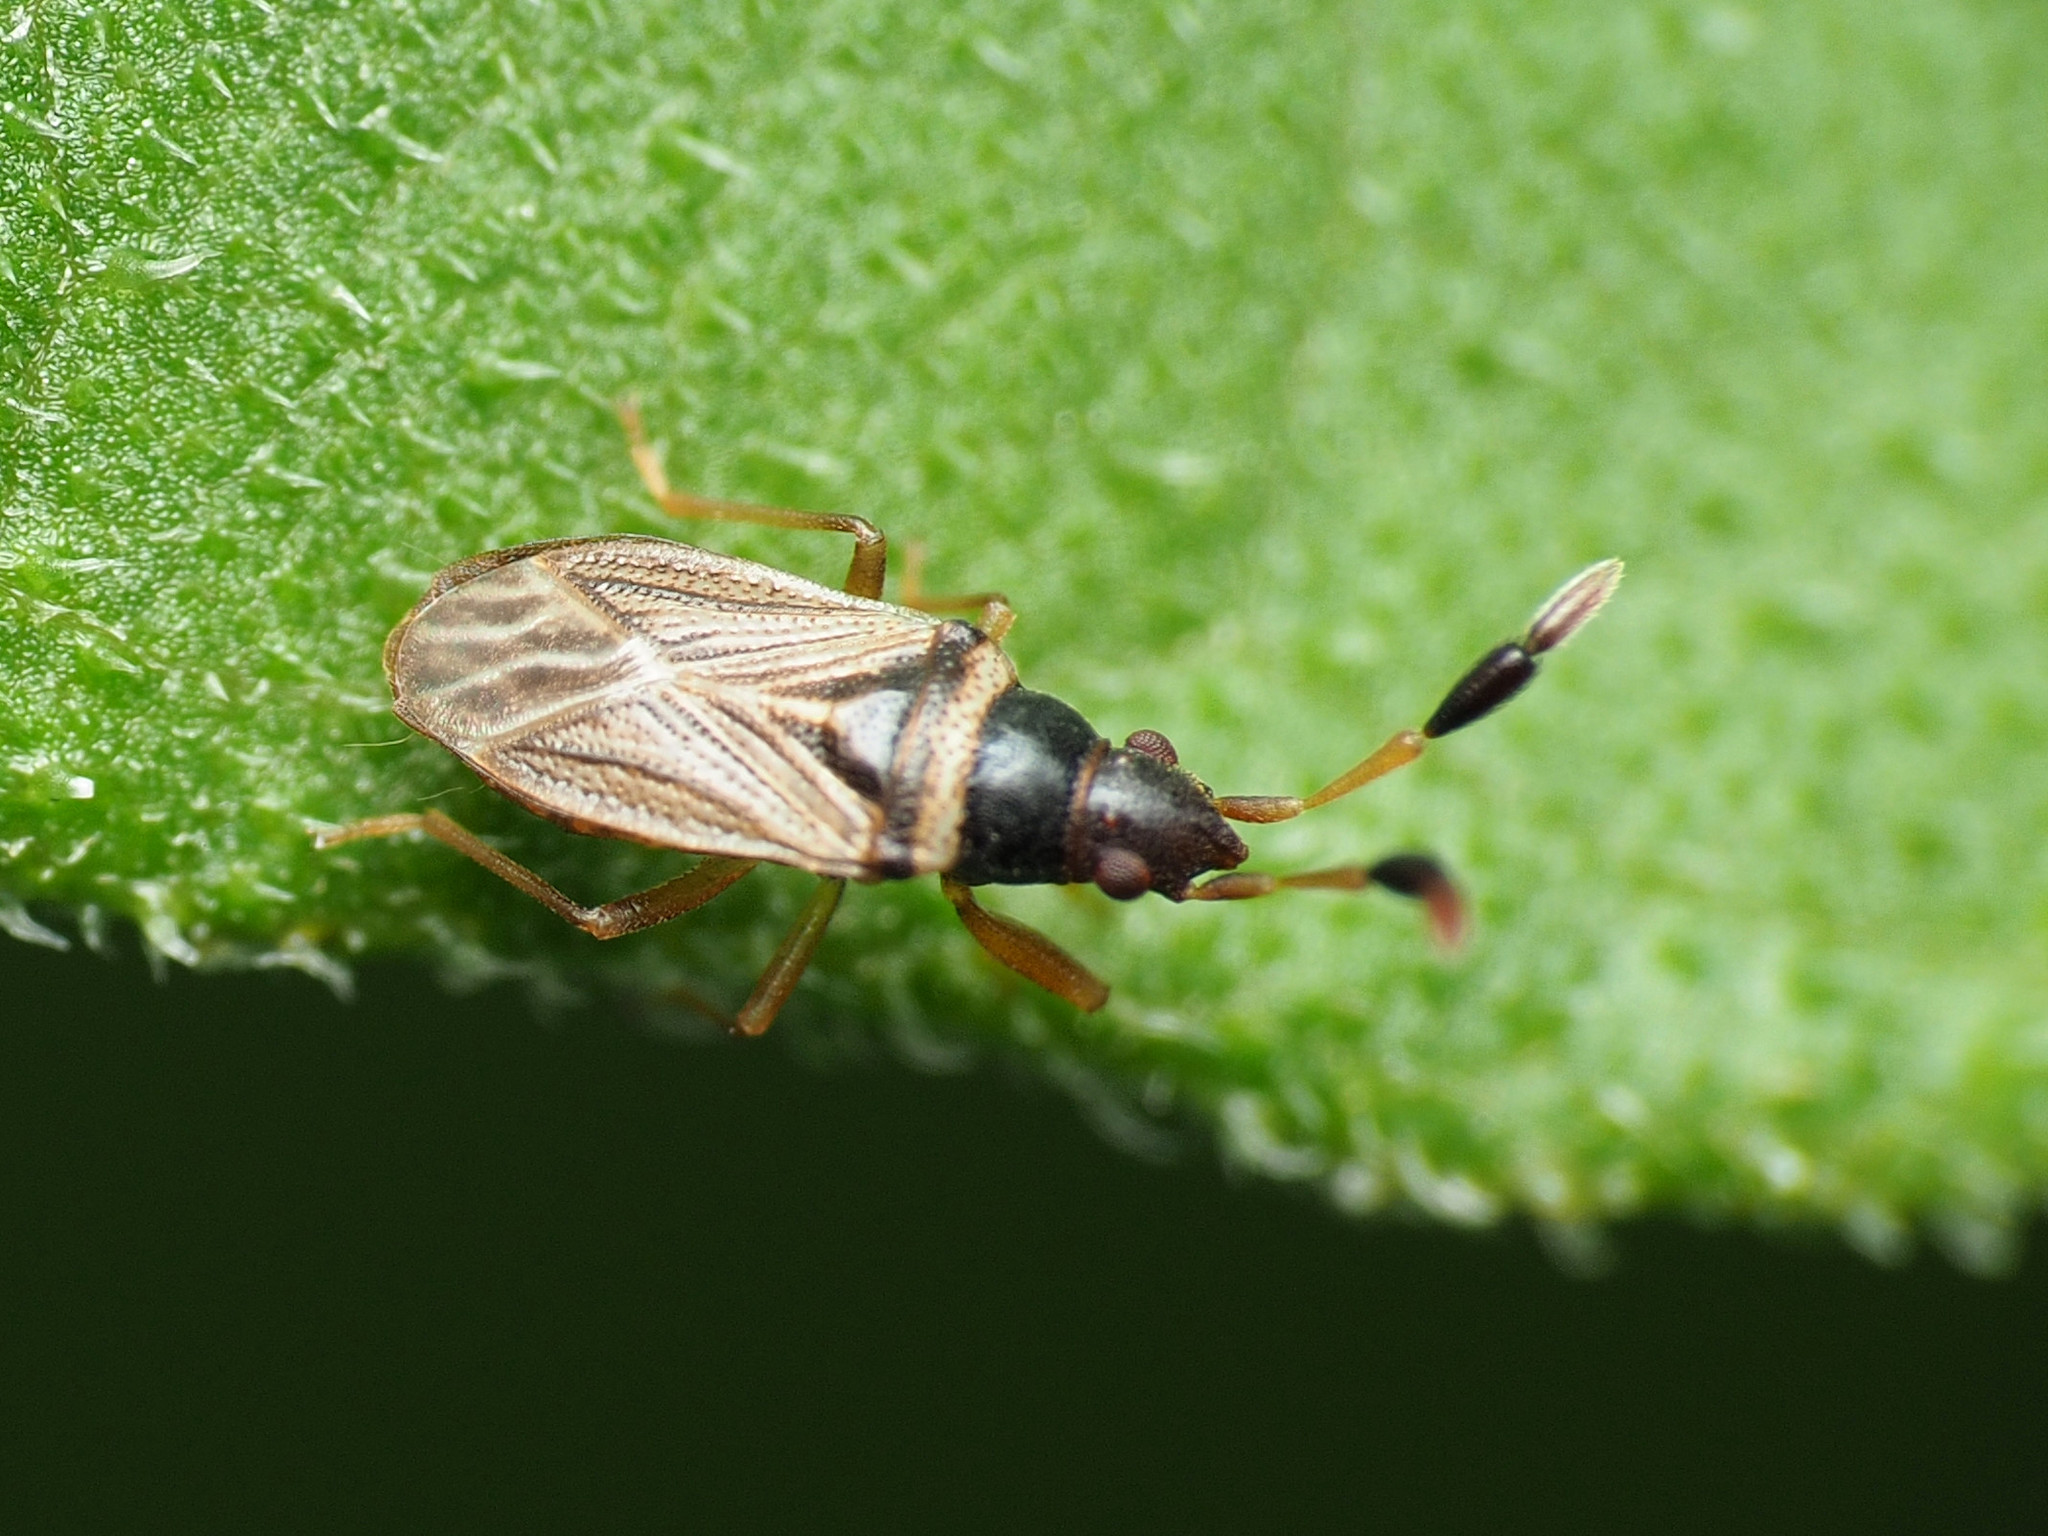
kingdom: Animalia
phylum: Arthropoda
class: Insecta
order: Hemiptera
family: Rhyparochromidae
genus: Ptochiomera
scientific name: Ptochiomera nodosa
